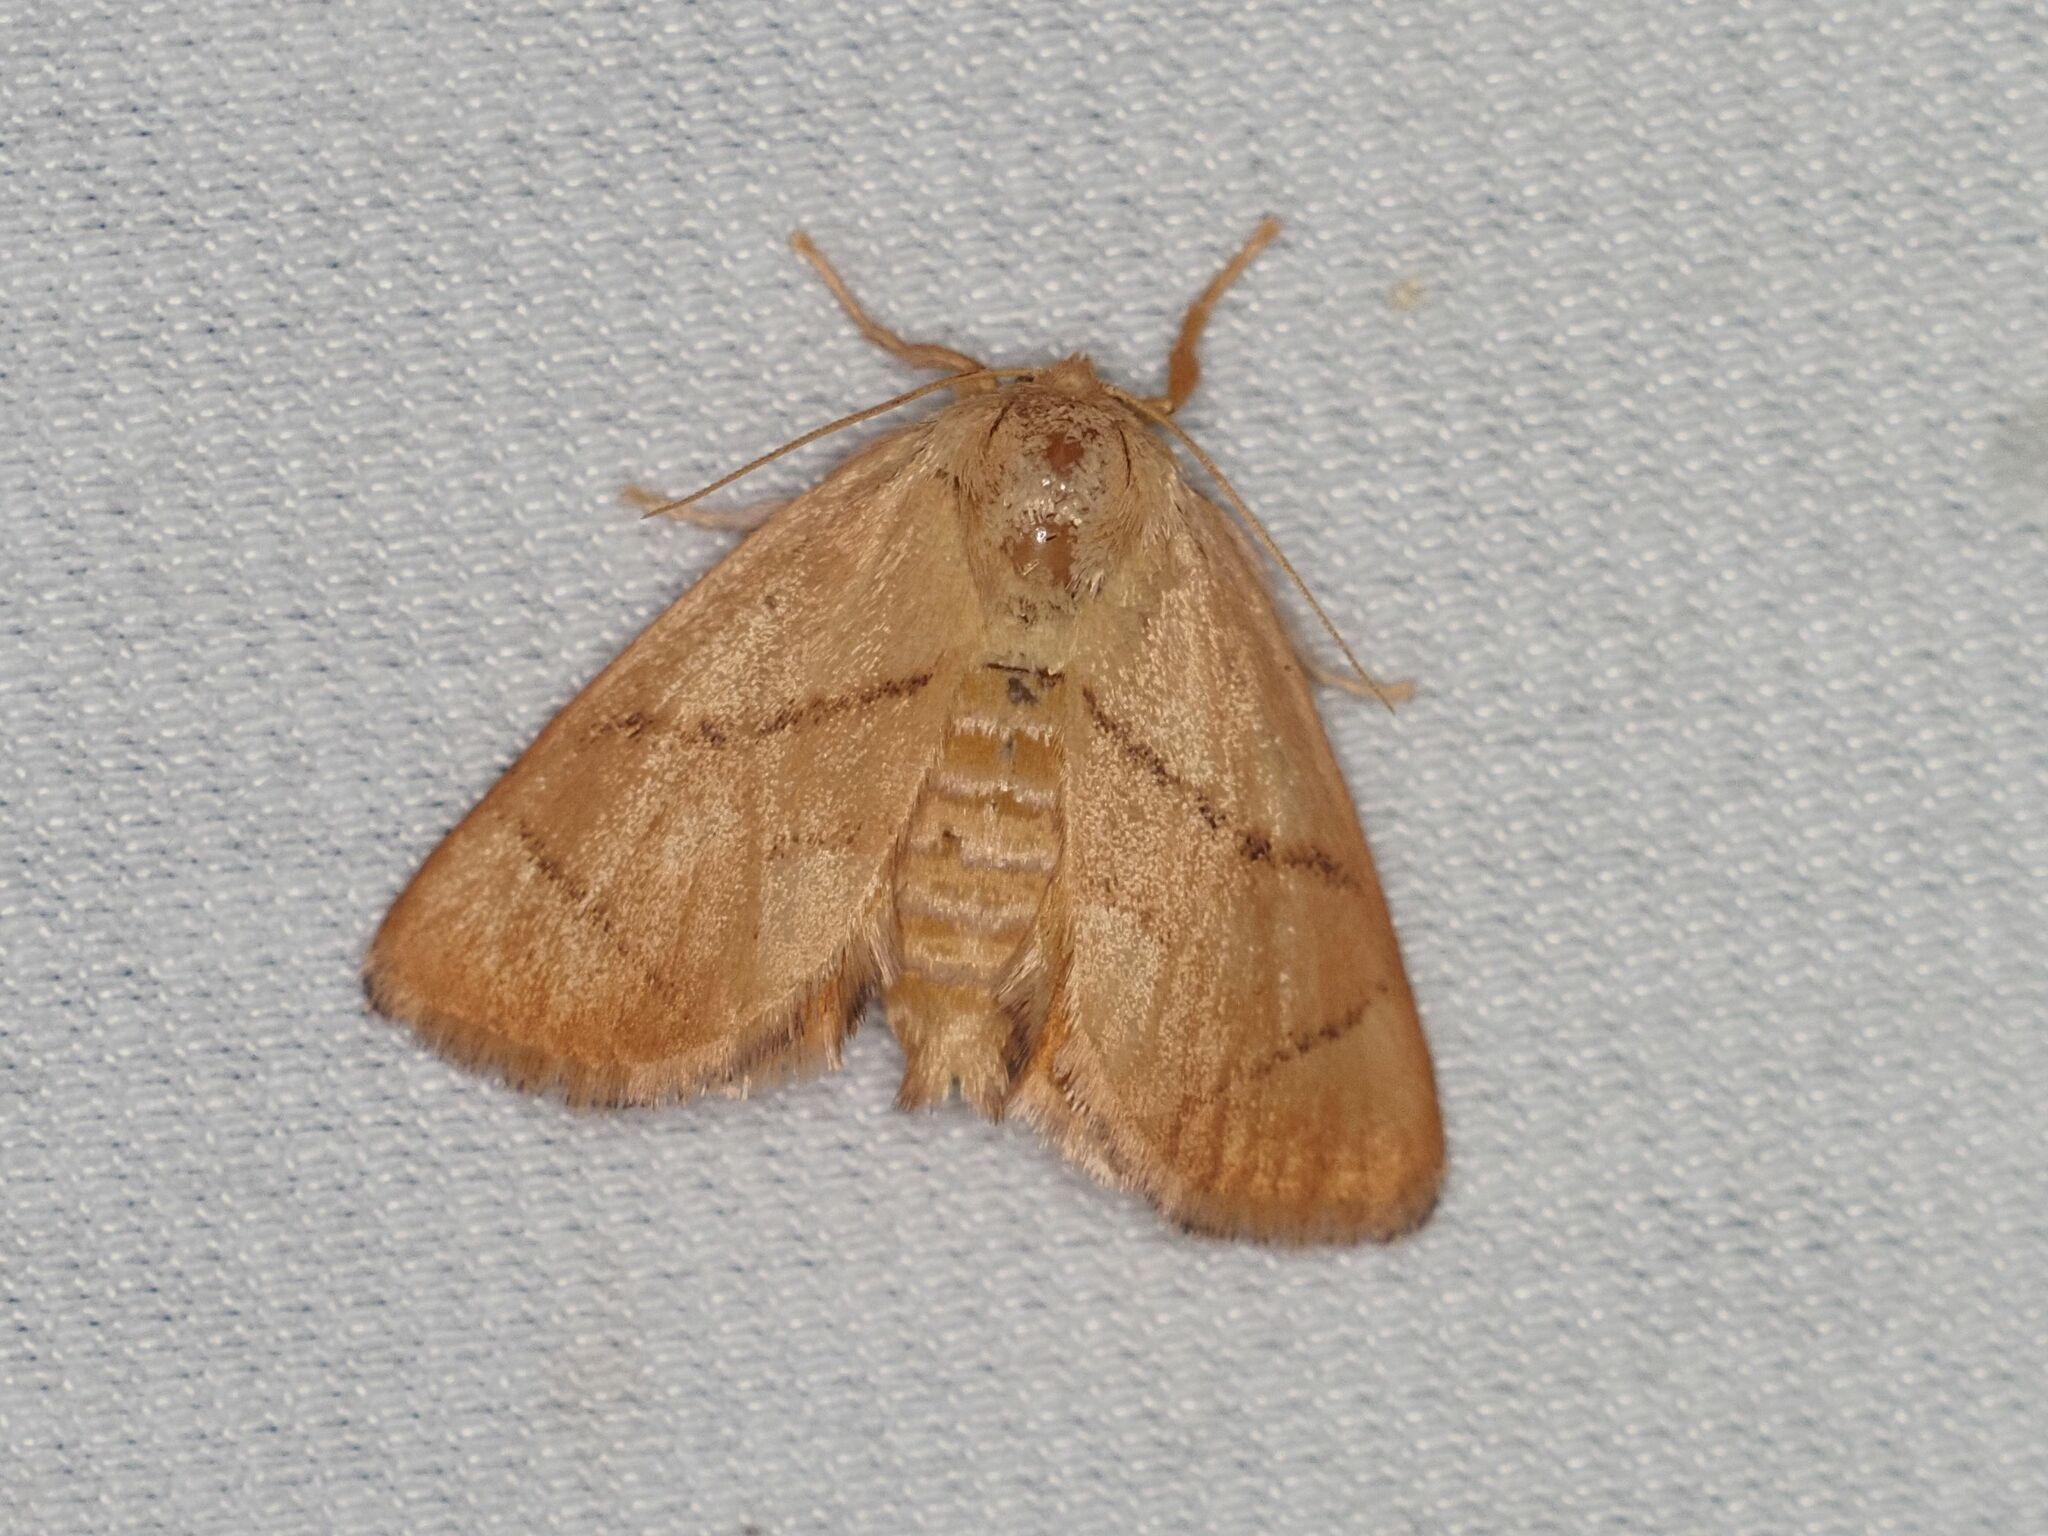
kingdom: Animalia
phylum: Arthropoda
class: Insecta
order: Lepidoptera
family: Limacodidae
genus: Apoda
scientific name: Apoda limacodes
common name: Festoon
